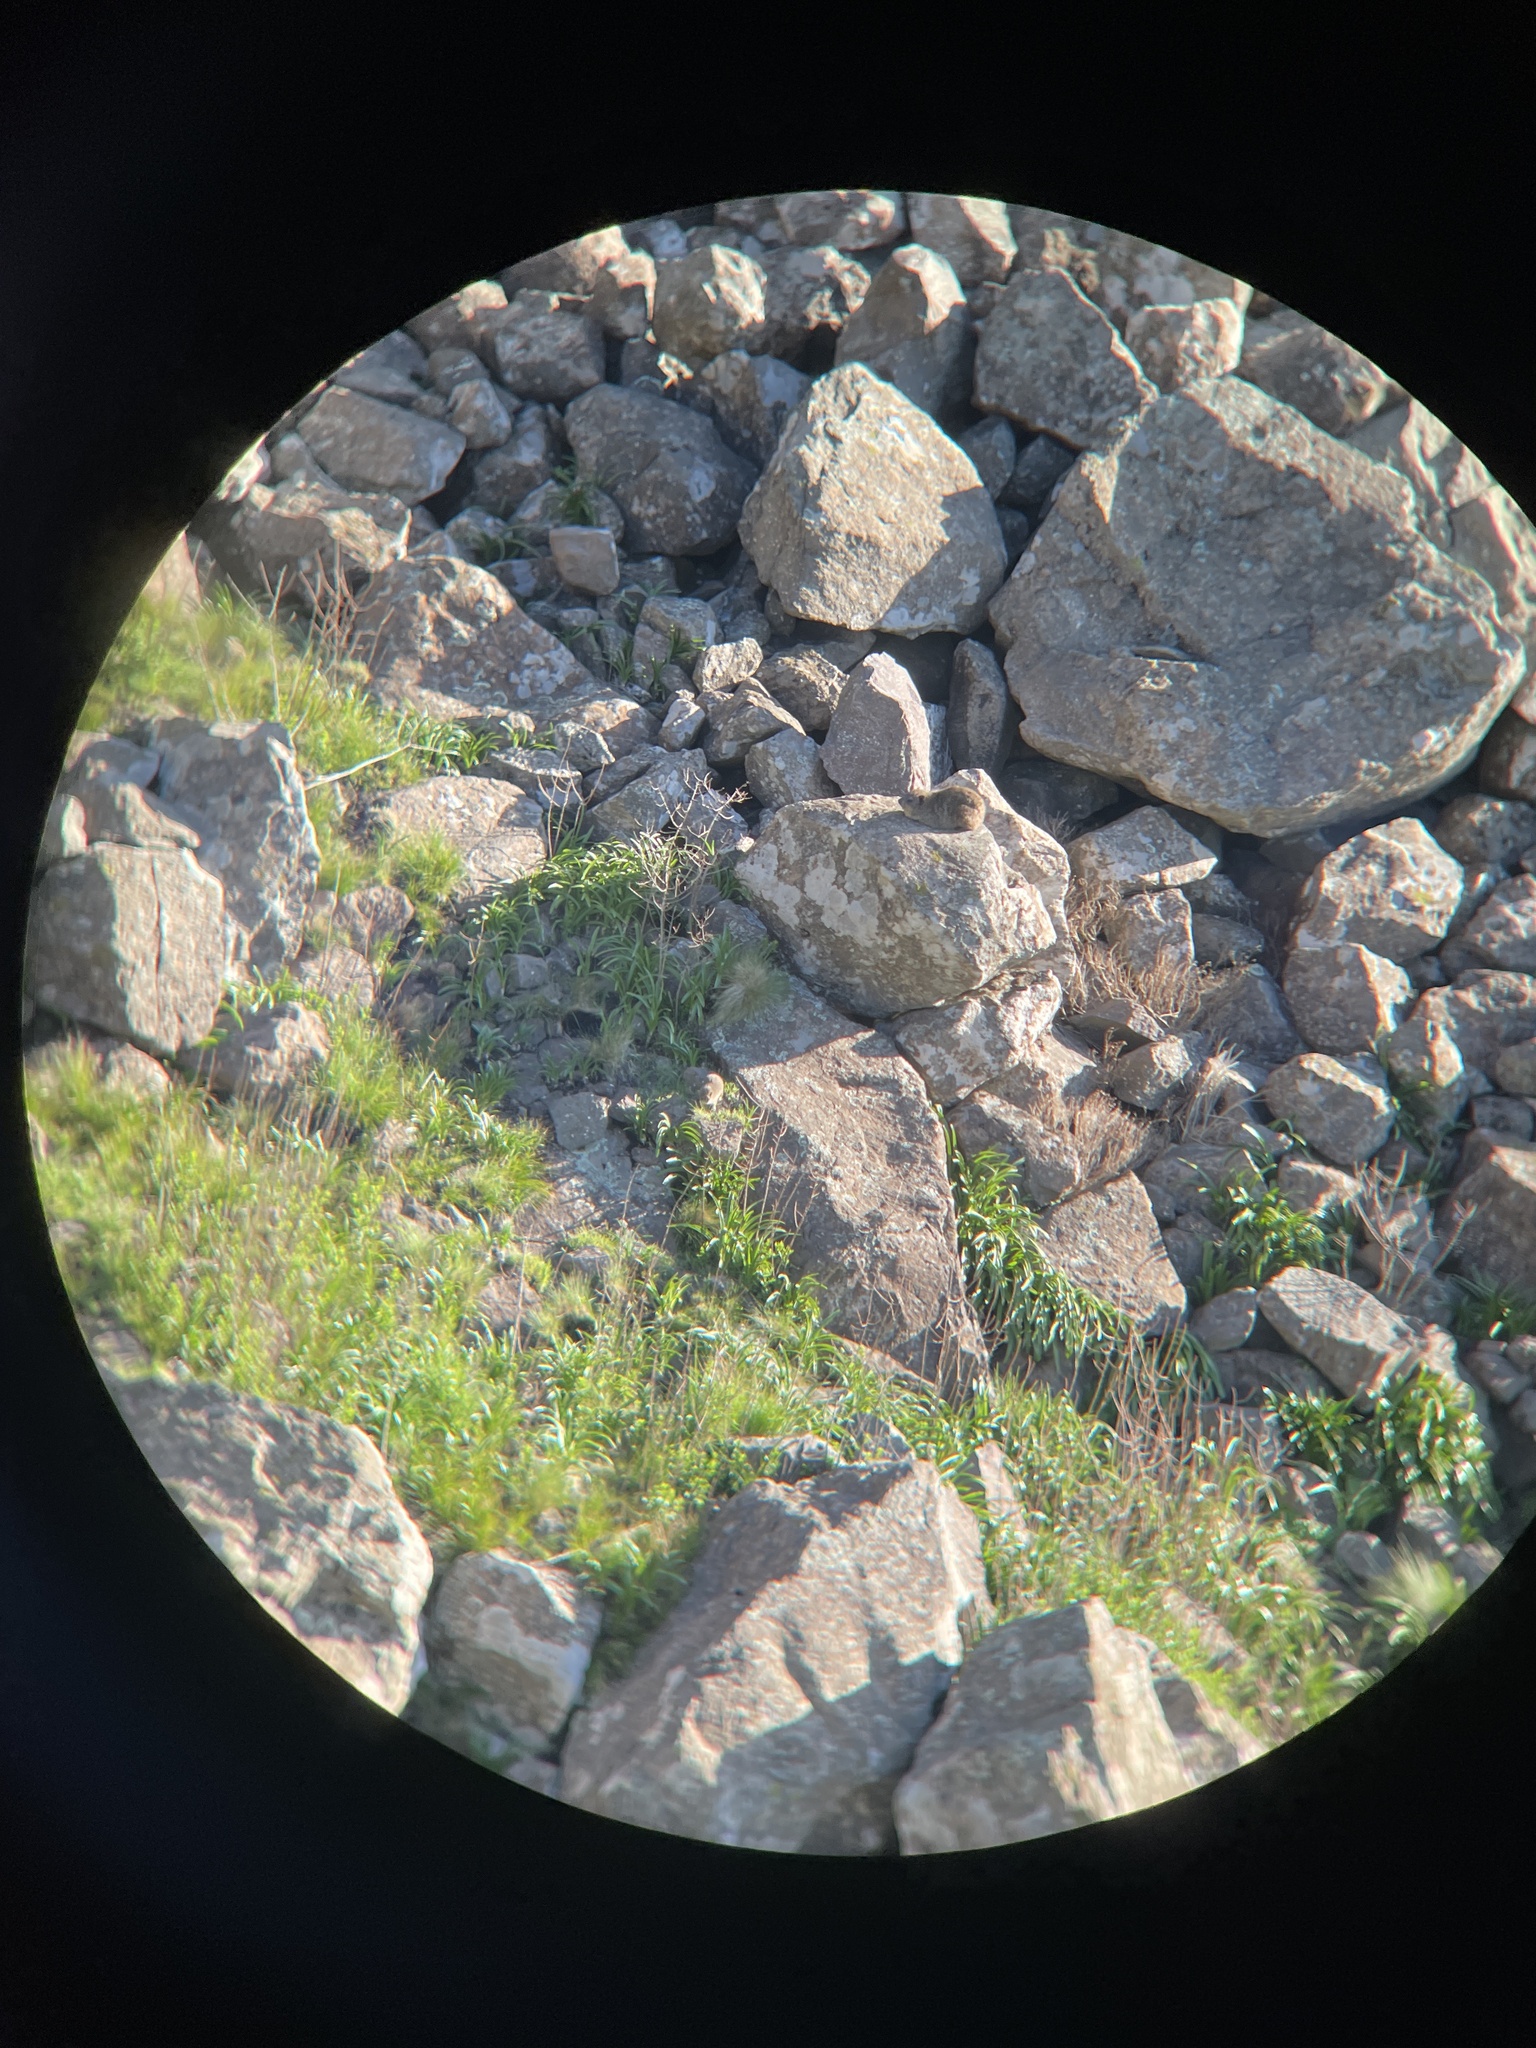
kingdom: Animalia
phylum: Chordata
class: Mammalia
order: Hyracoidea
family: Procaviidae
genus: Procavia
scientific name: Procavia capensis
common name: Rock hyrax
